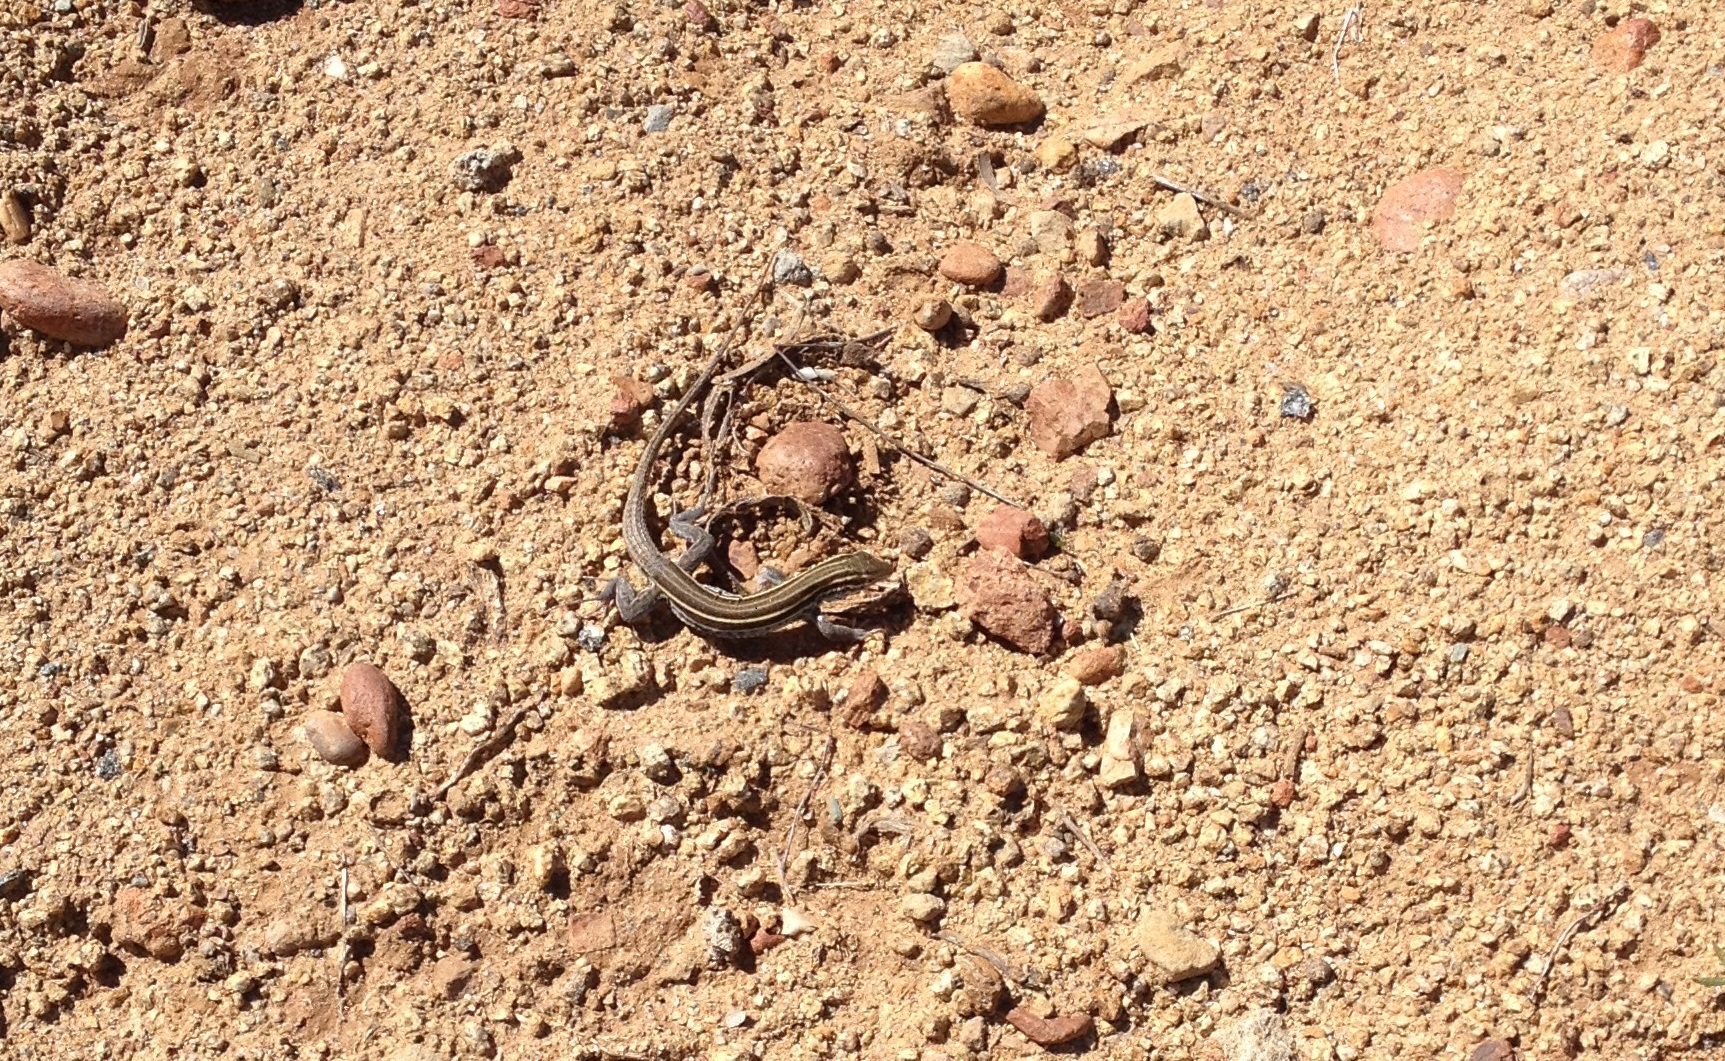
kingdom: Animalia
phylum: Chordata
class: Squamata
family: Teiidae
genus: Aspidoscelis
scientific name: Aspidoscelis hyperythrus
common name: Orange-throated race-runner
